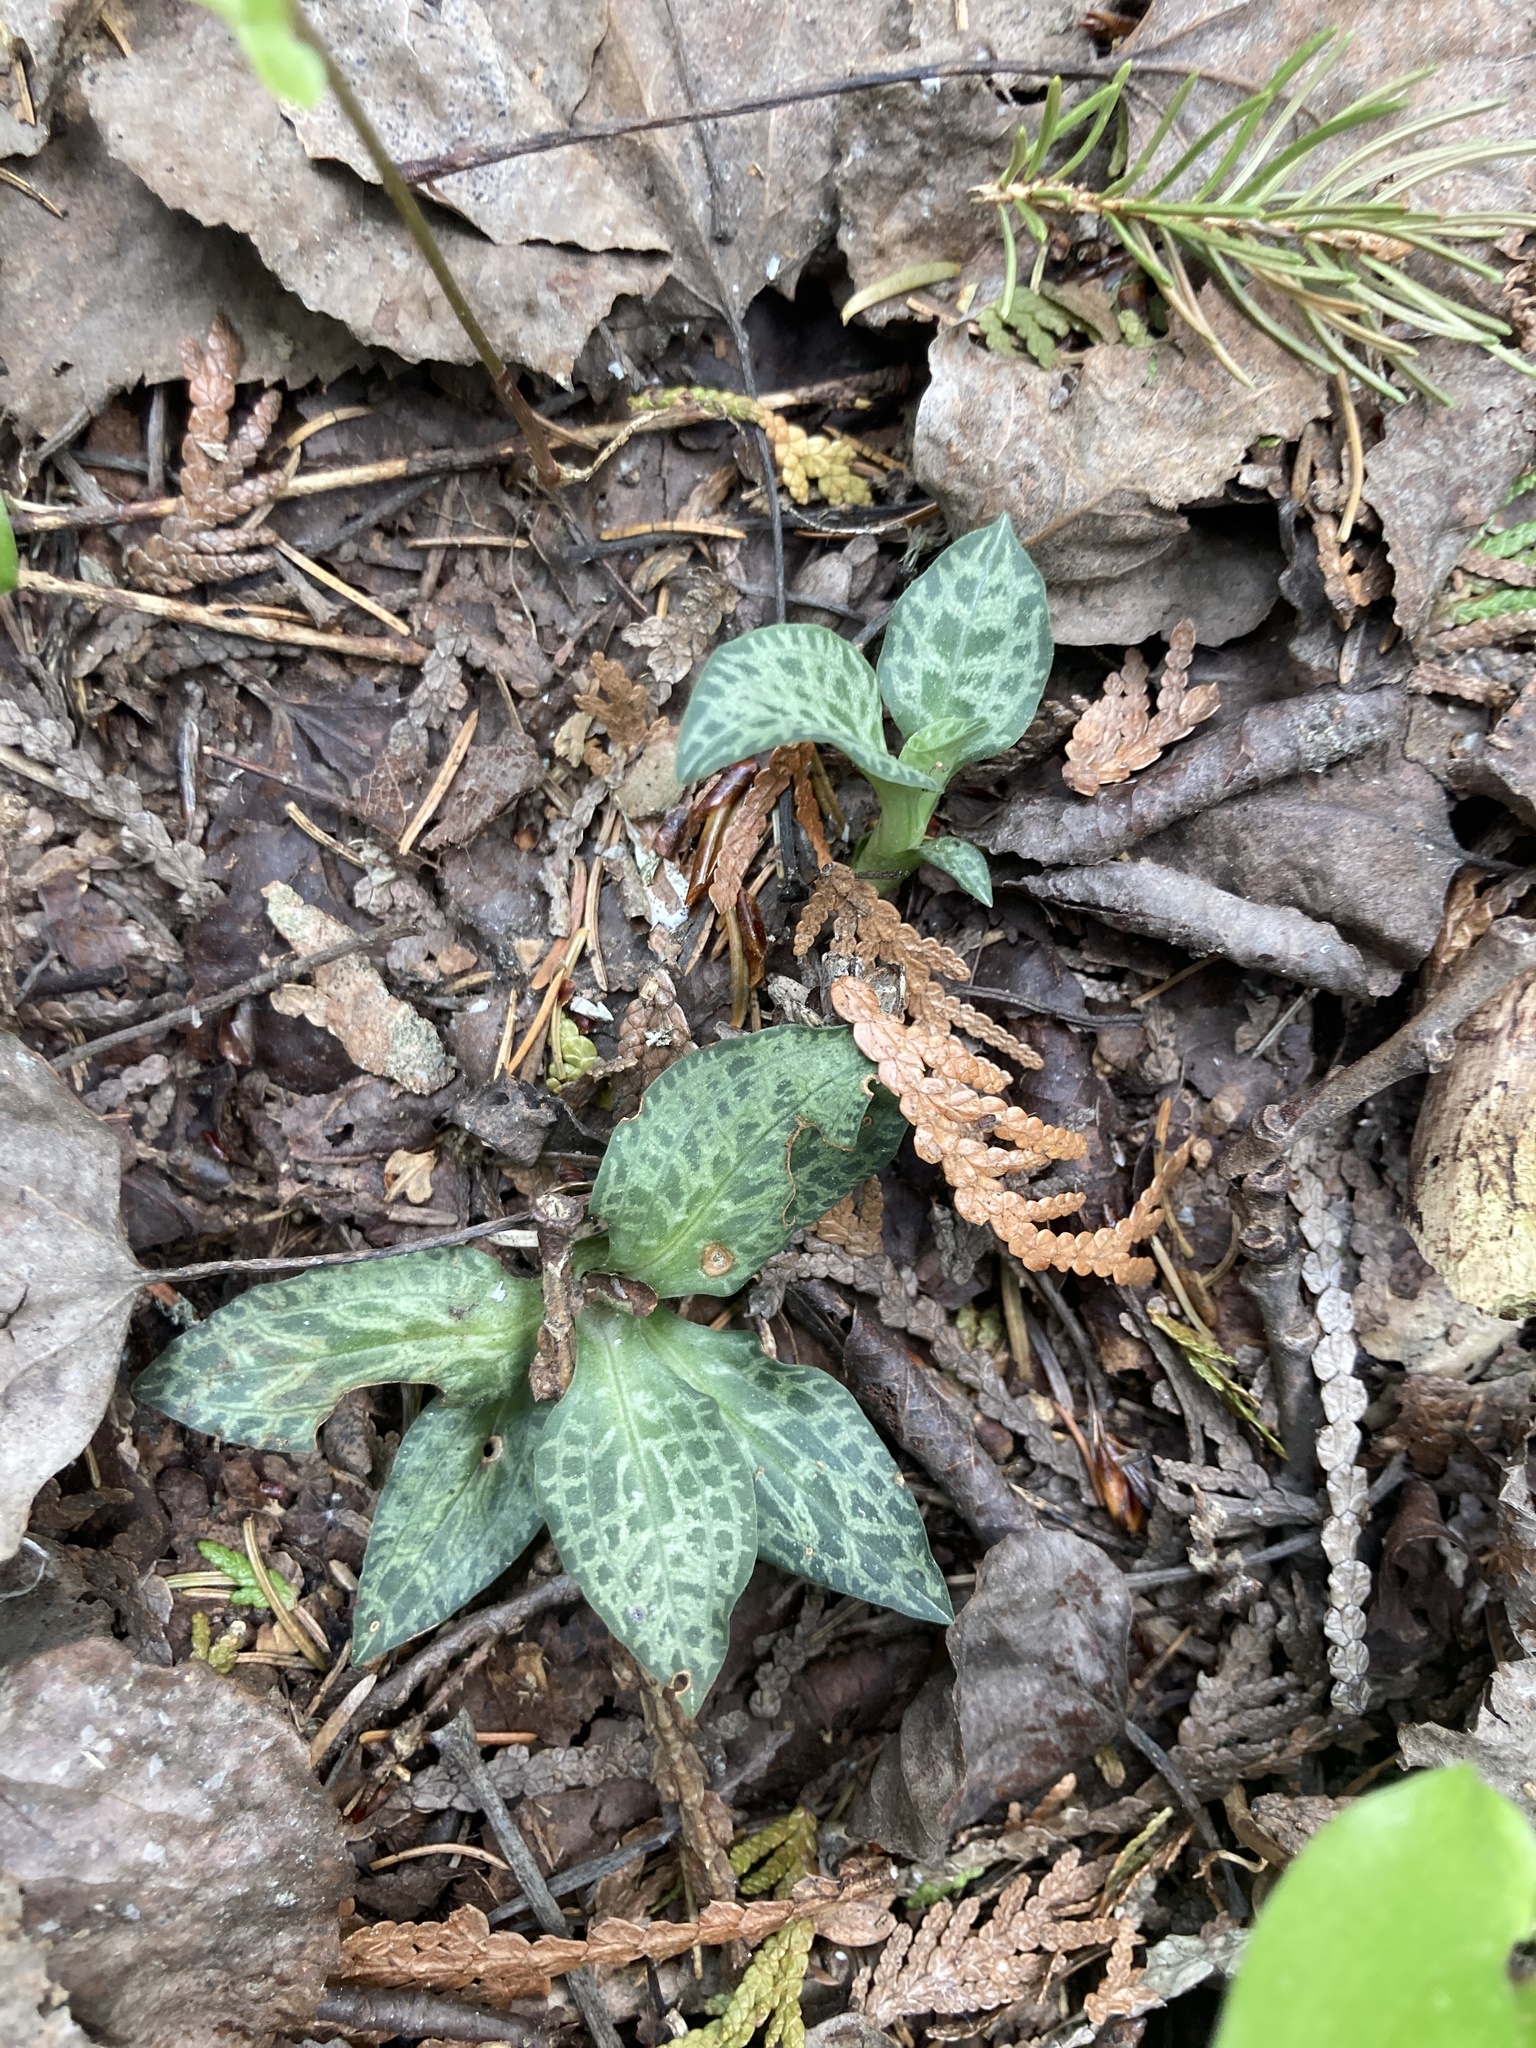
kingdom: Plantae
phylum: Tracheophyta
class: Liliopsida
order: Asparagales
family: Orchidaceae
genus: Goodyera
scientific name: Goodyera tesselata
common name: Checkered rattlesnake-plantain
